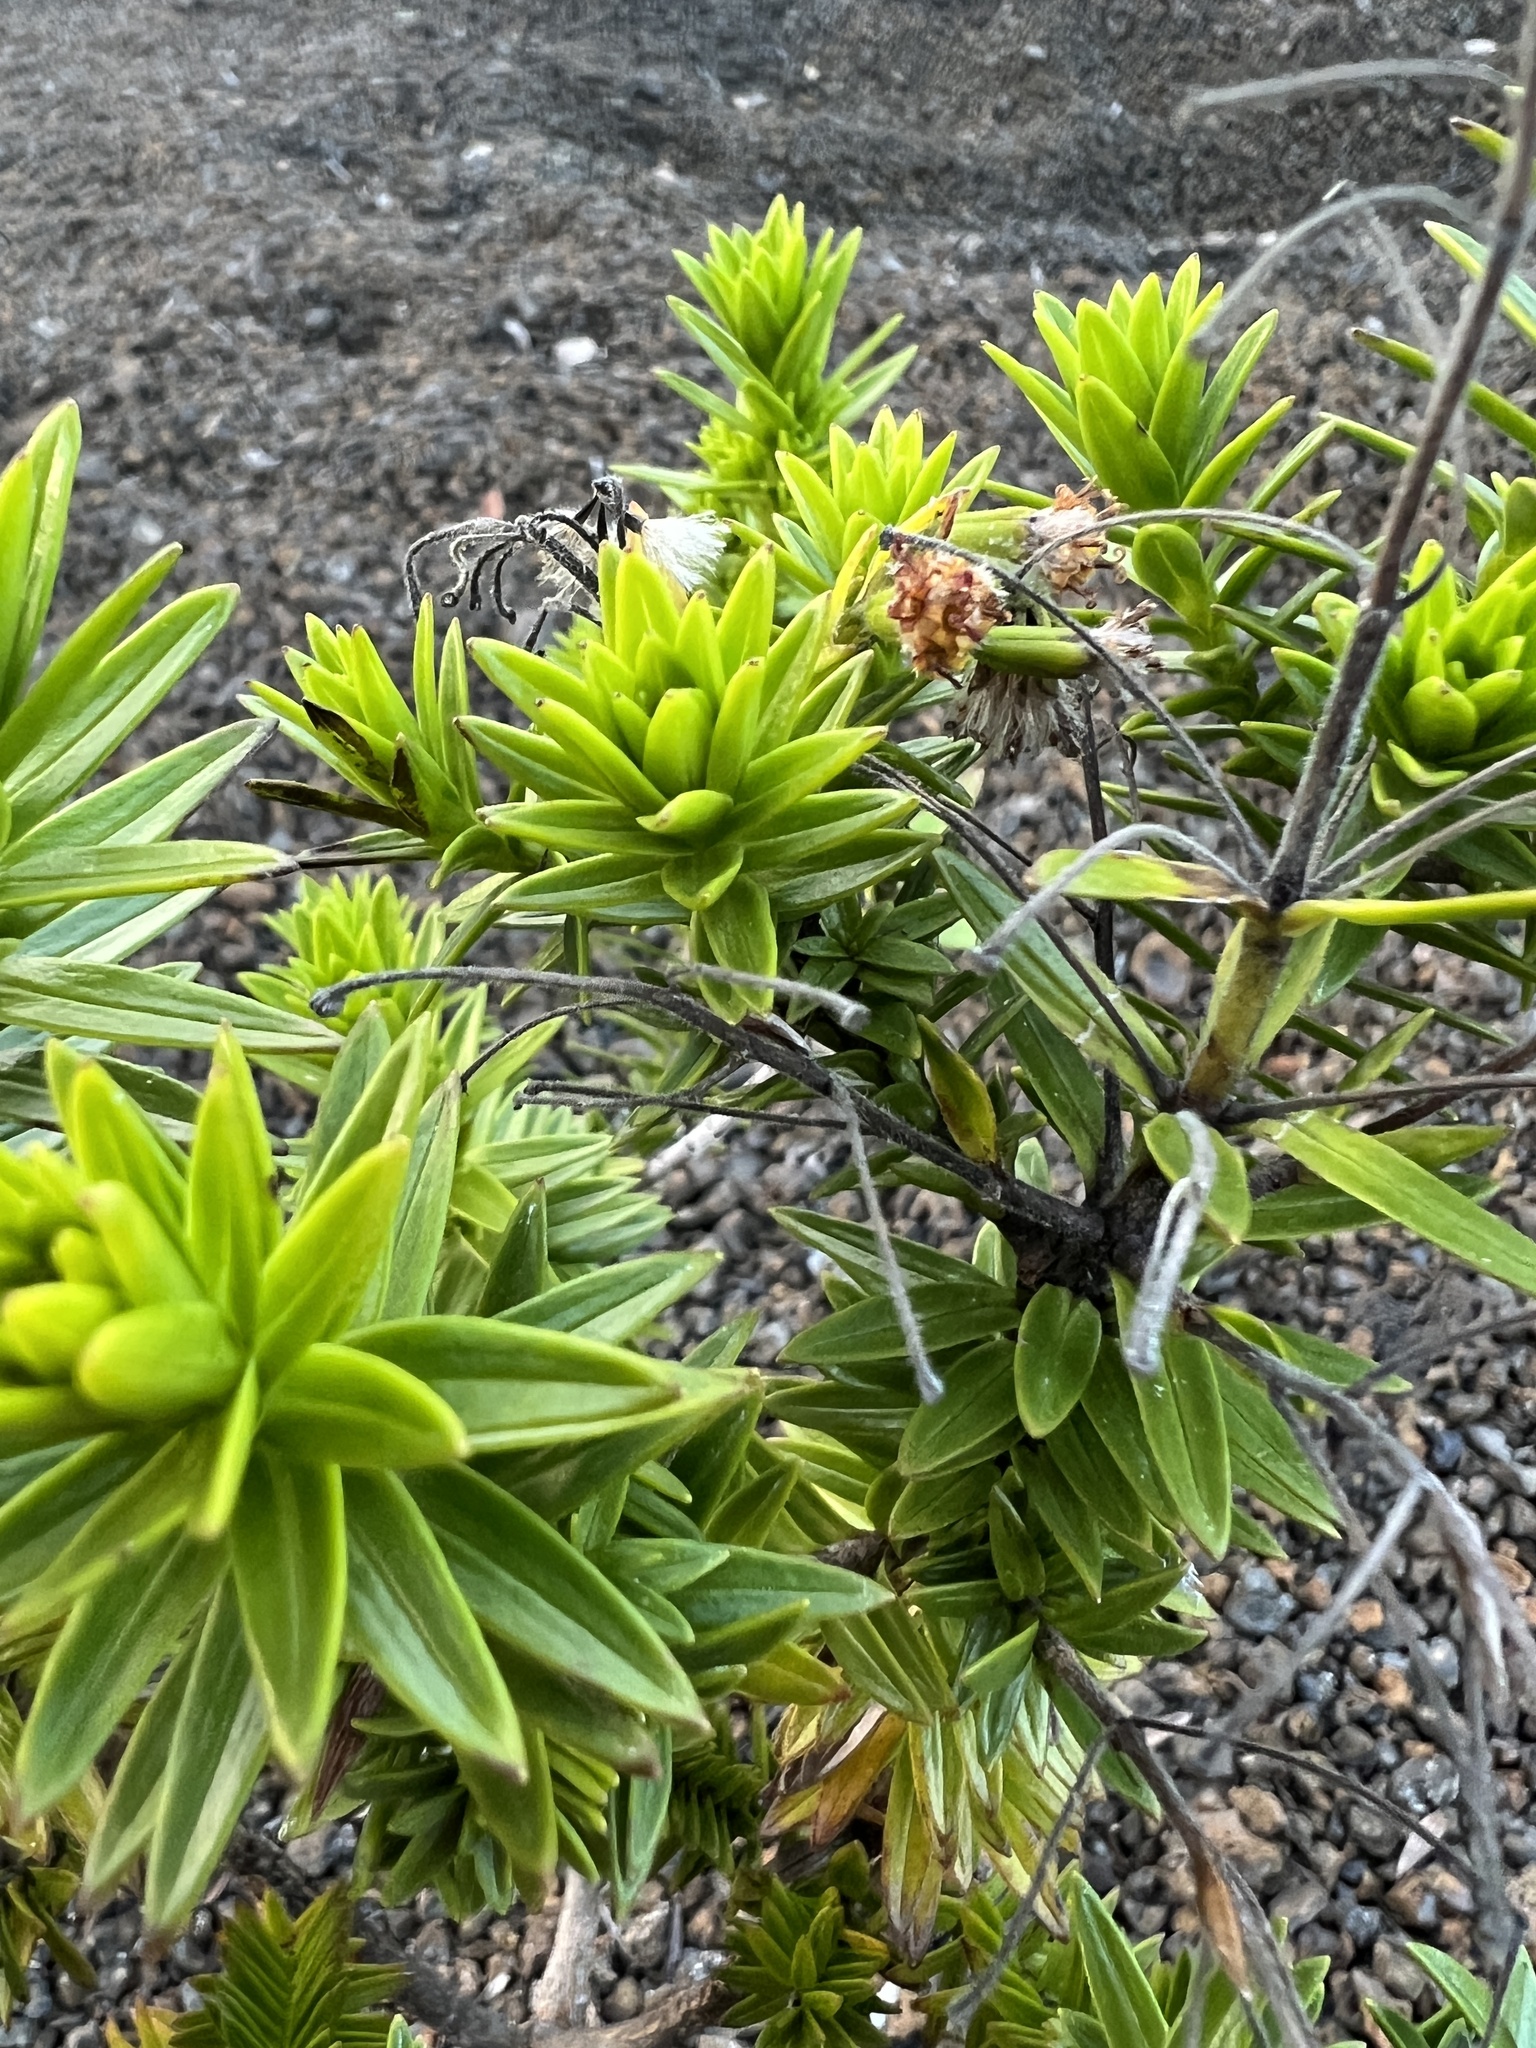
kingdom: Plantae
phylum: Tracheophyta
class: Magnoliopsida
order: Asterales
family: Asteraceae
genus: Dubautia
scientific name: Dubautia ciliolata
